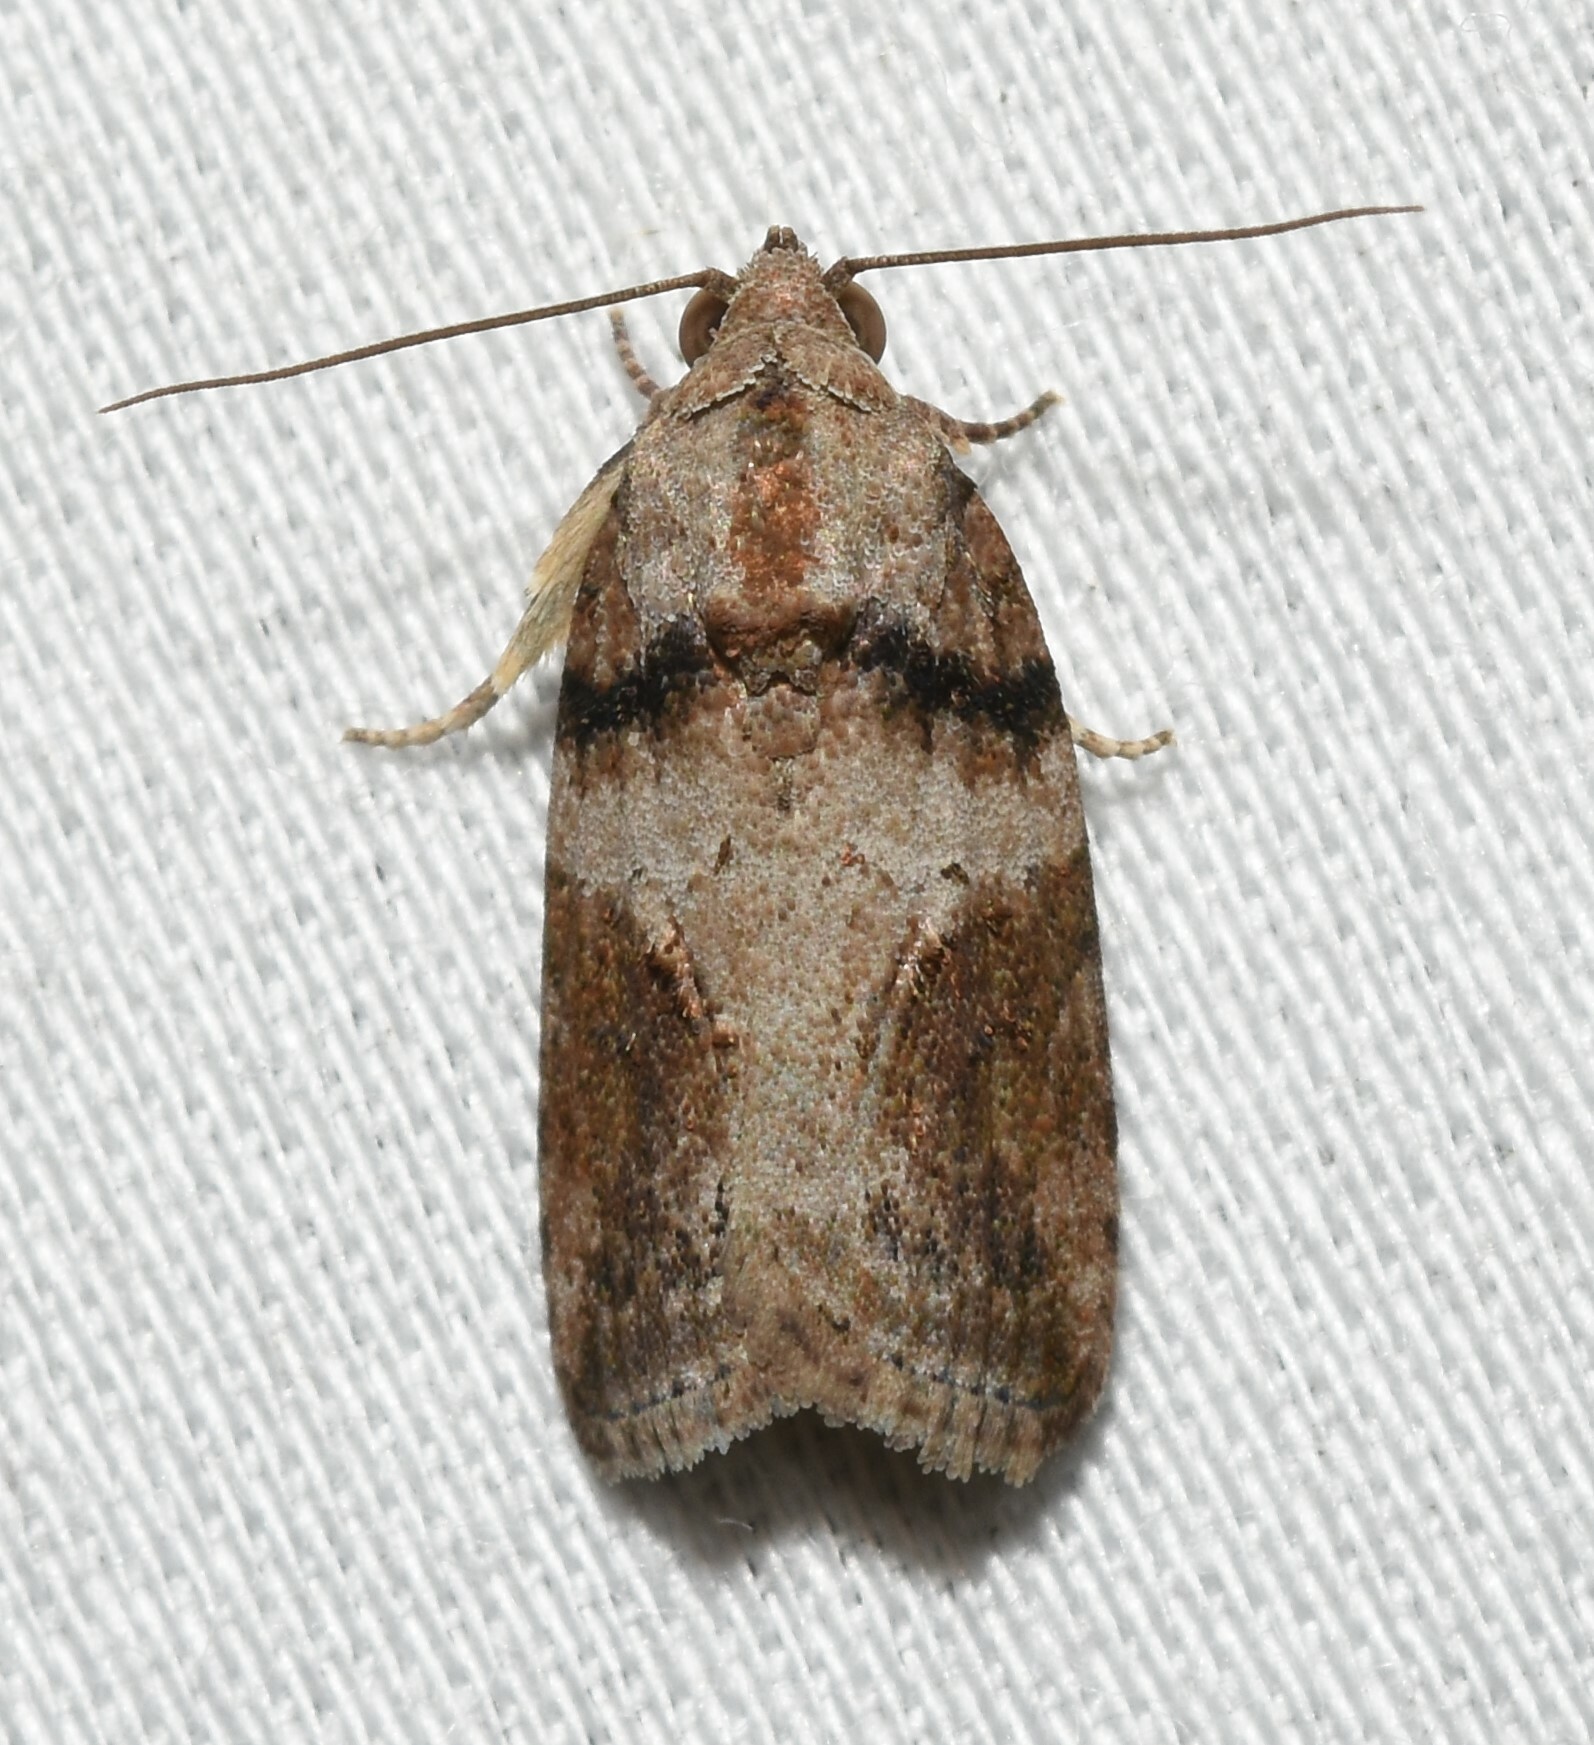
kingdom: Animalia
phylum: Arthropoda
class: Insecta
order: Lepidoptera
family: Nolidae
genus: Garella
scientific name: Garella nilotica
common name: Black-olive caterpillar moth
